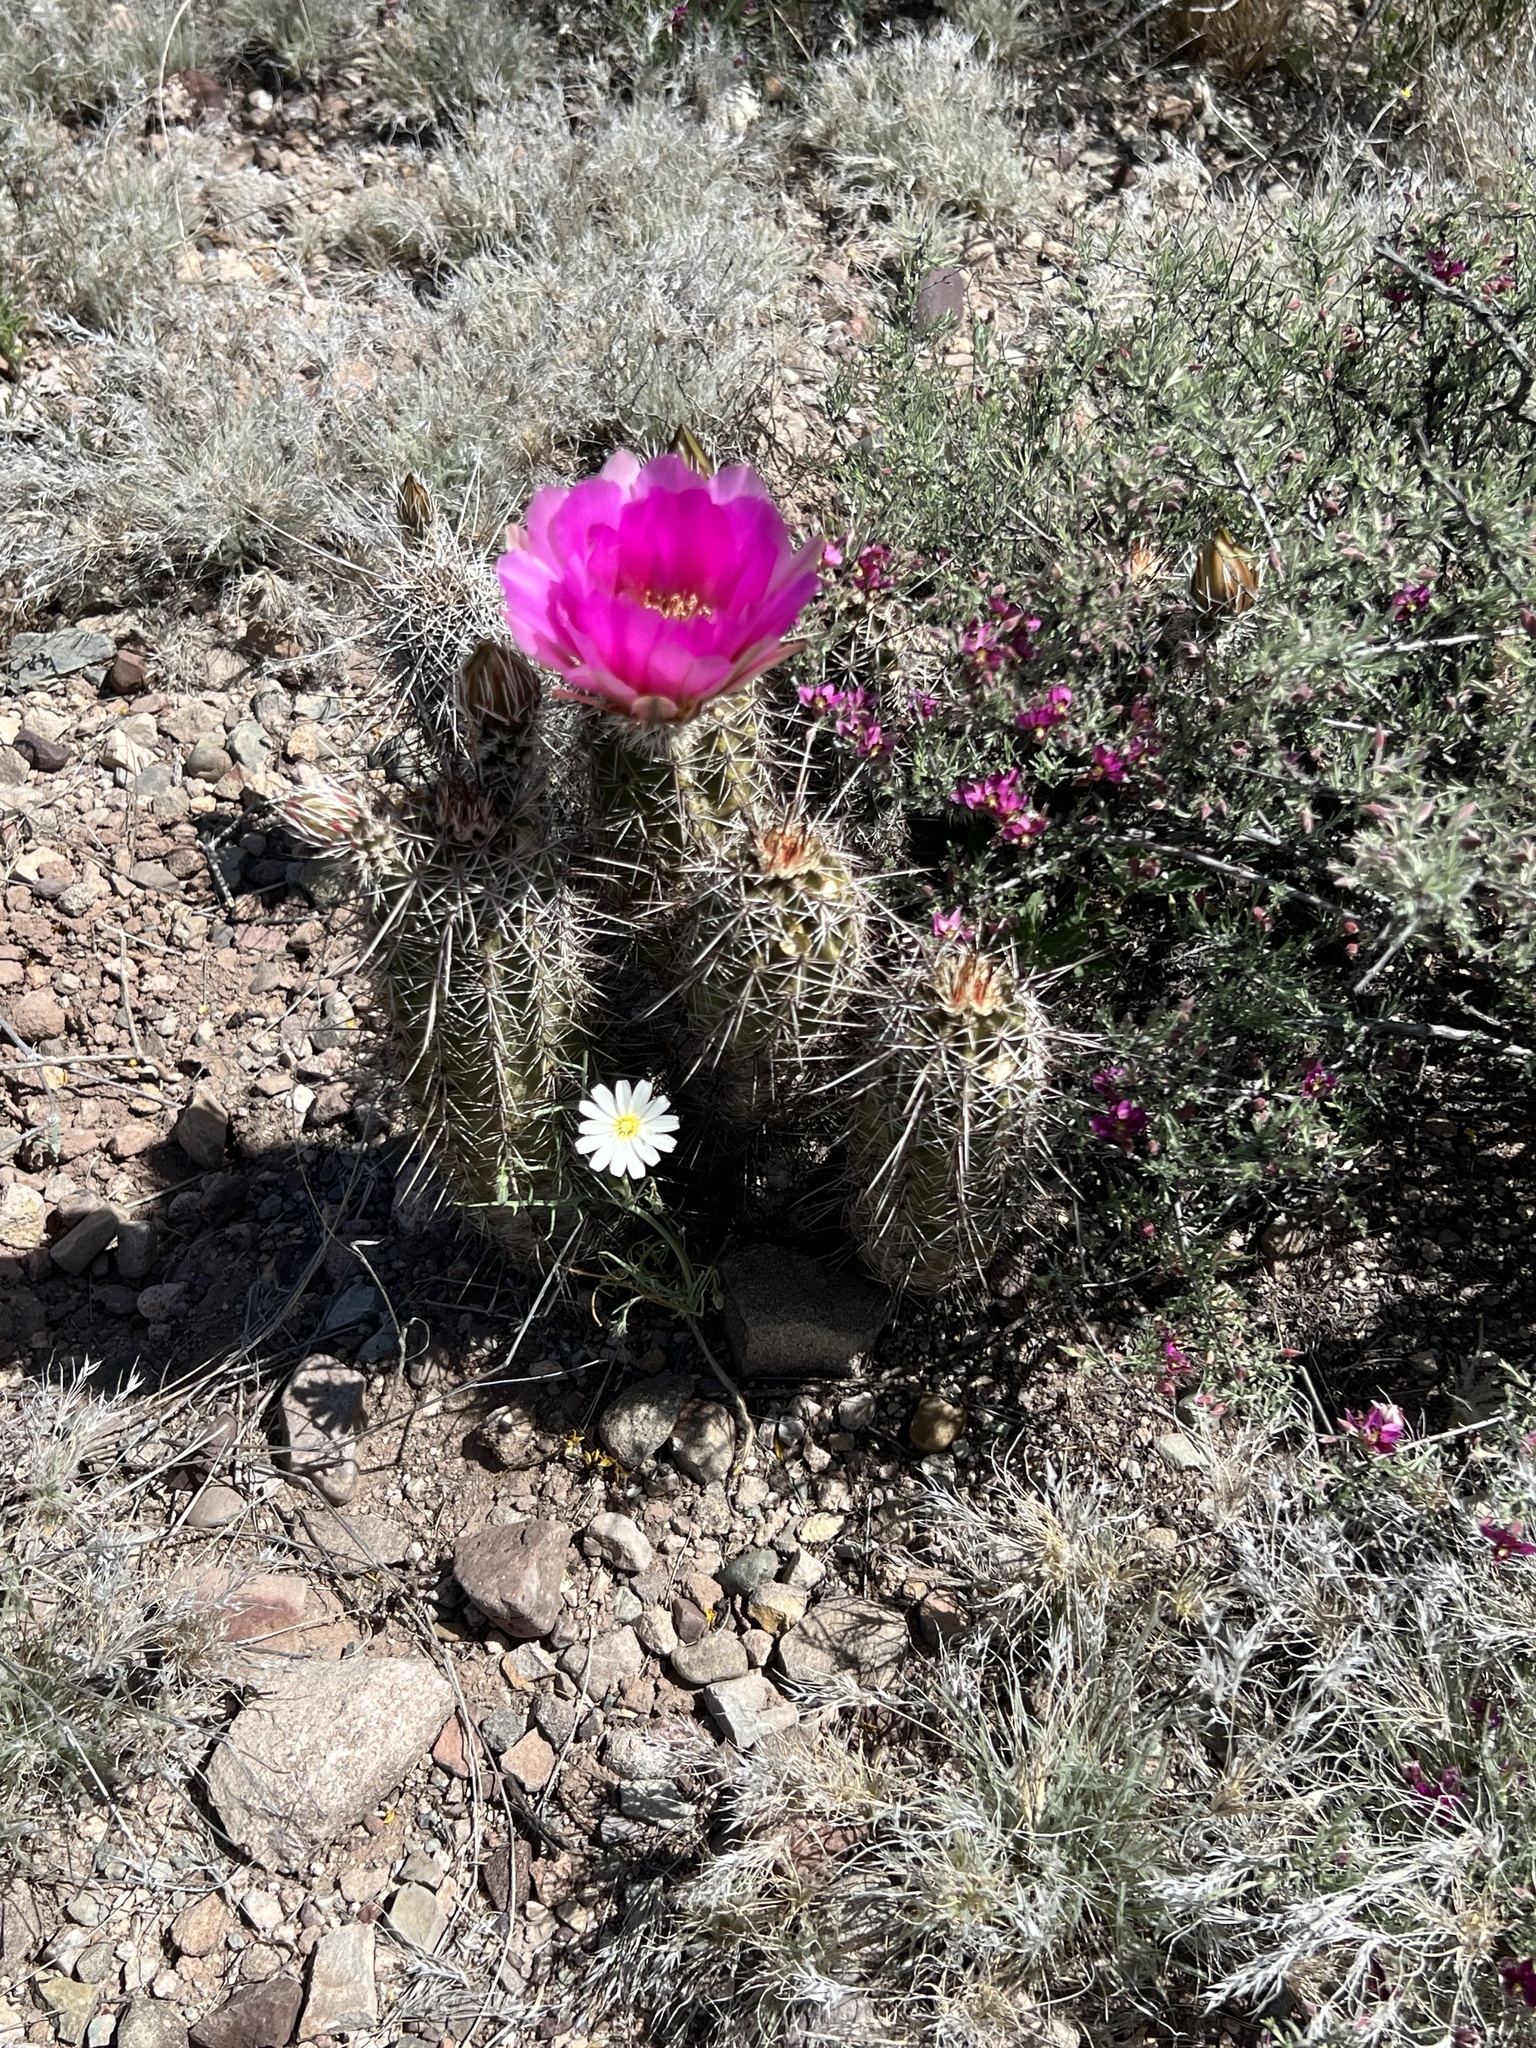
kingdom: Plantae
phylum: Tracheophyta
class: Magnoliopsida
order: Caryophyllales
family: Cactaceae
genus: Echinocereus
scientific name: Echinocereus fasciculatus
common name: Bundle hedgehog
